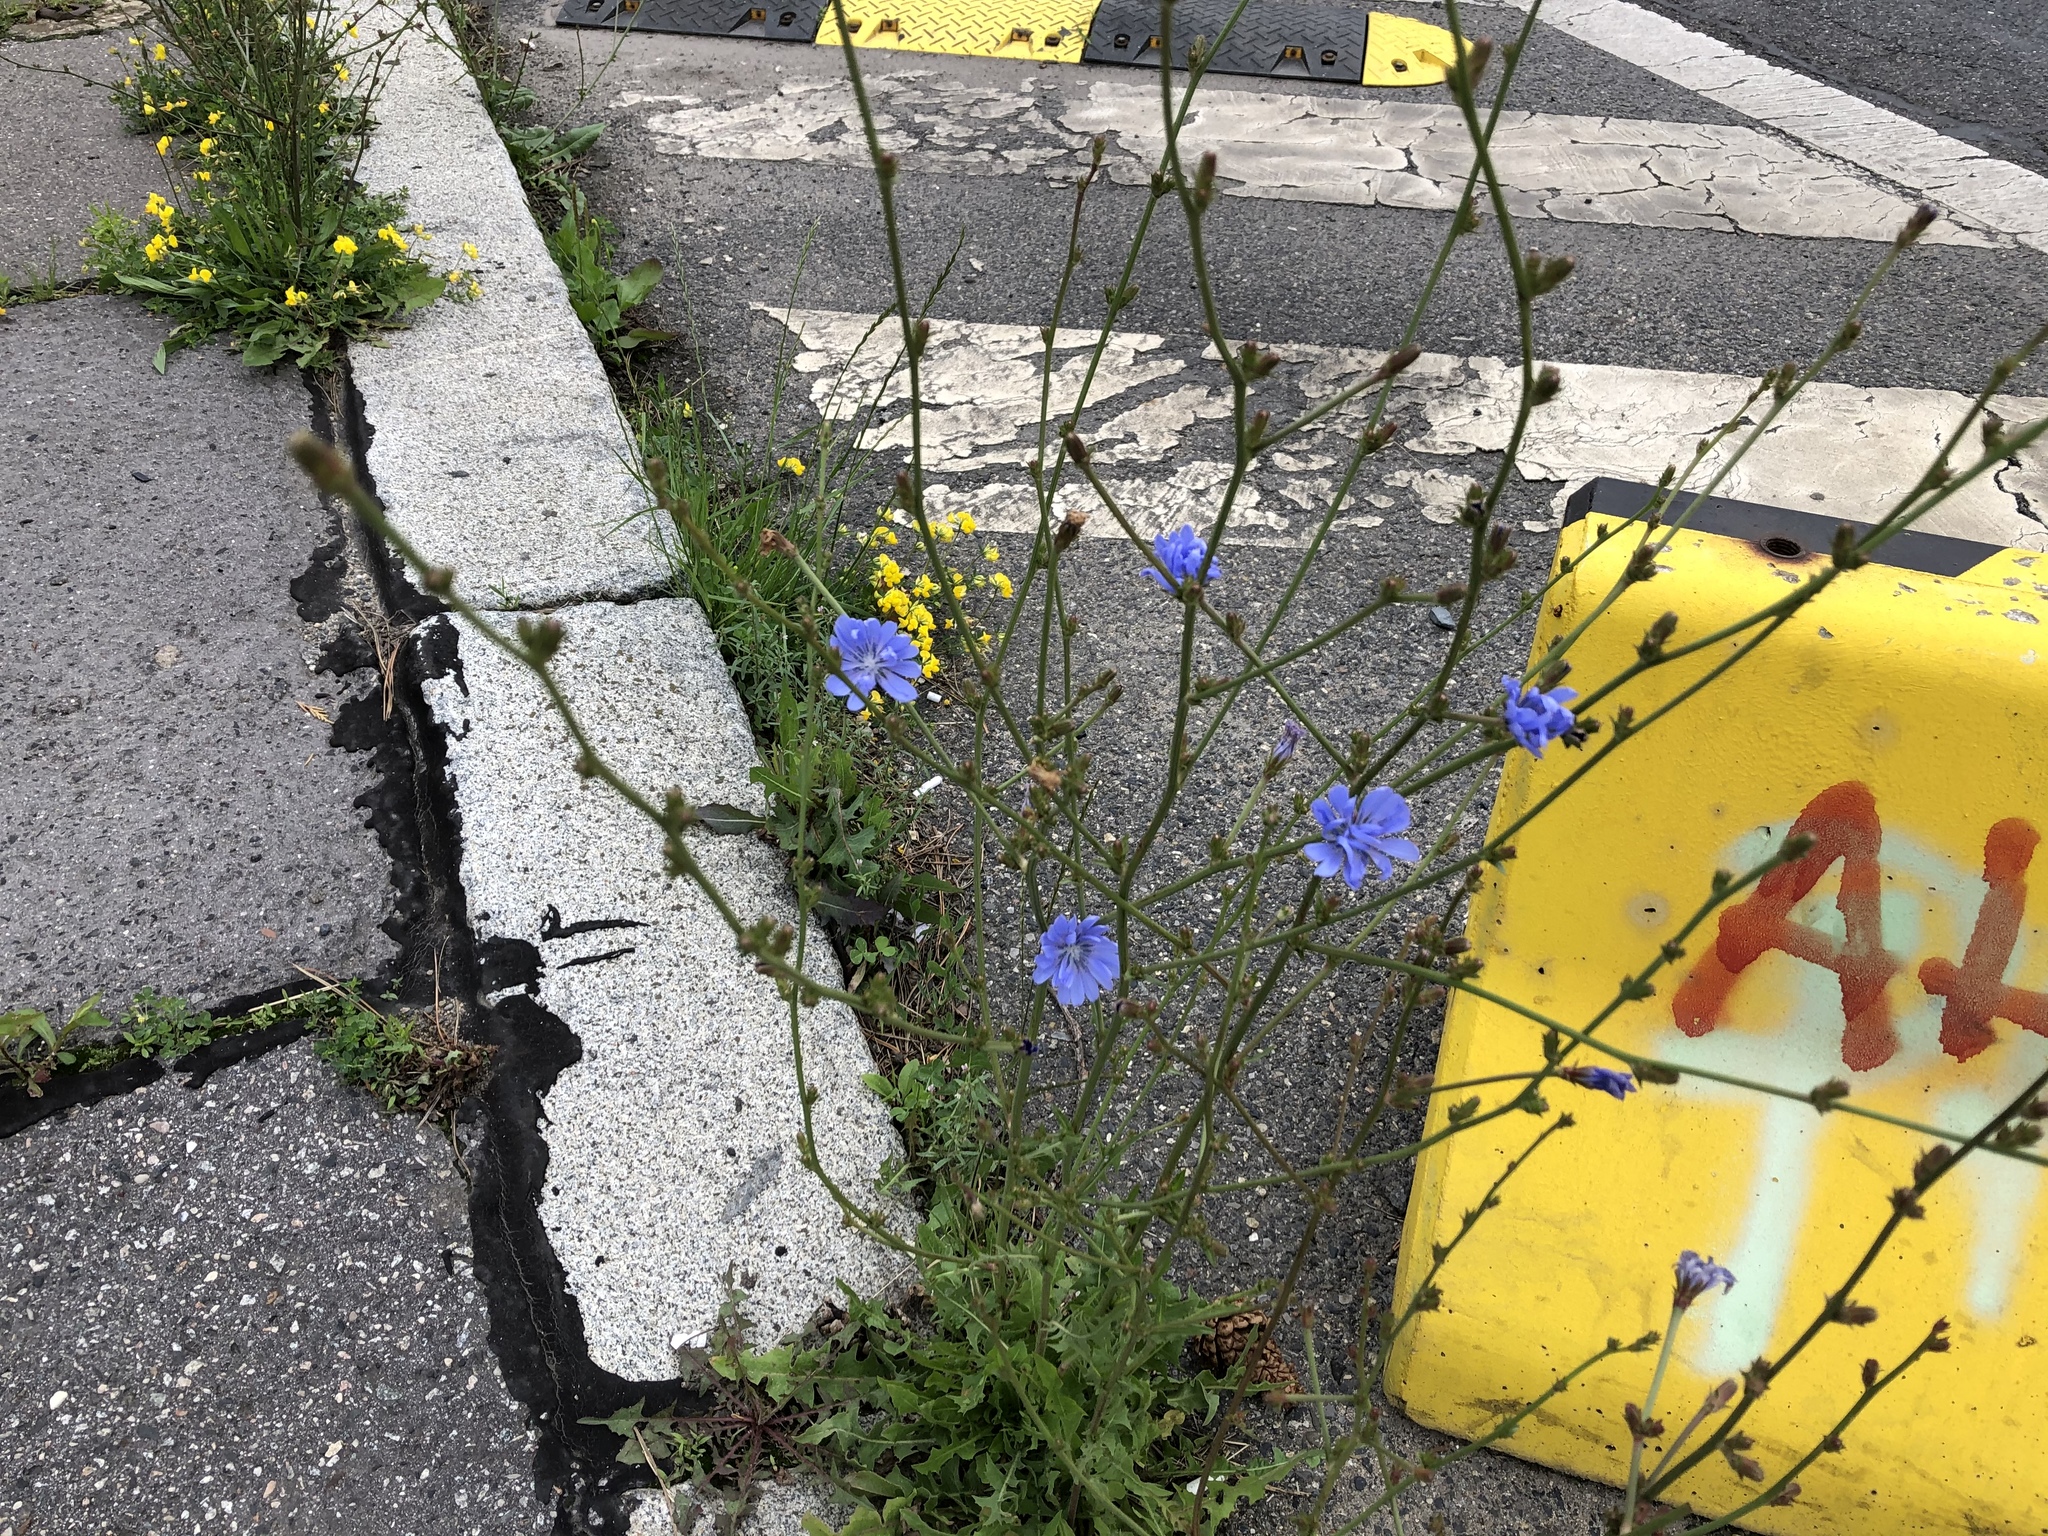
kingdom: Plantae
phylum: Tracheophyta
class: Magnoliopsida
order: Asterales
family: Asteraceae
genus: Cichorium
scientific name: Cichorium intybus
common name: Chicory
